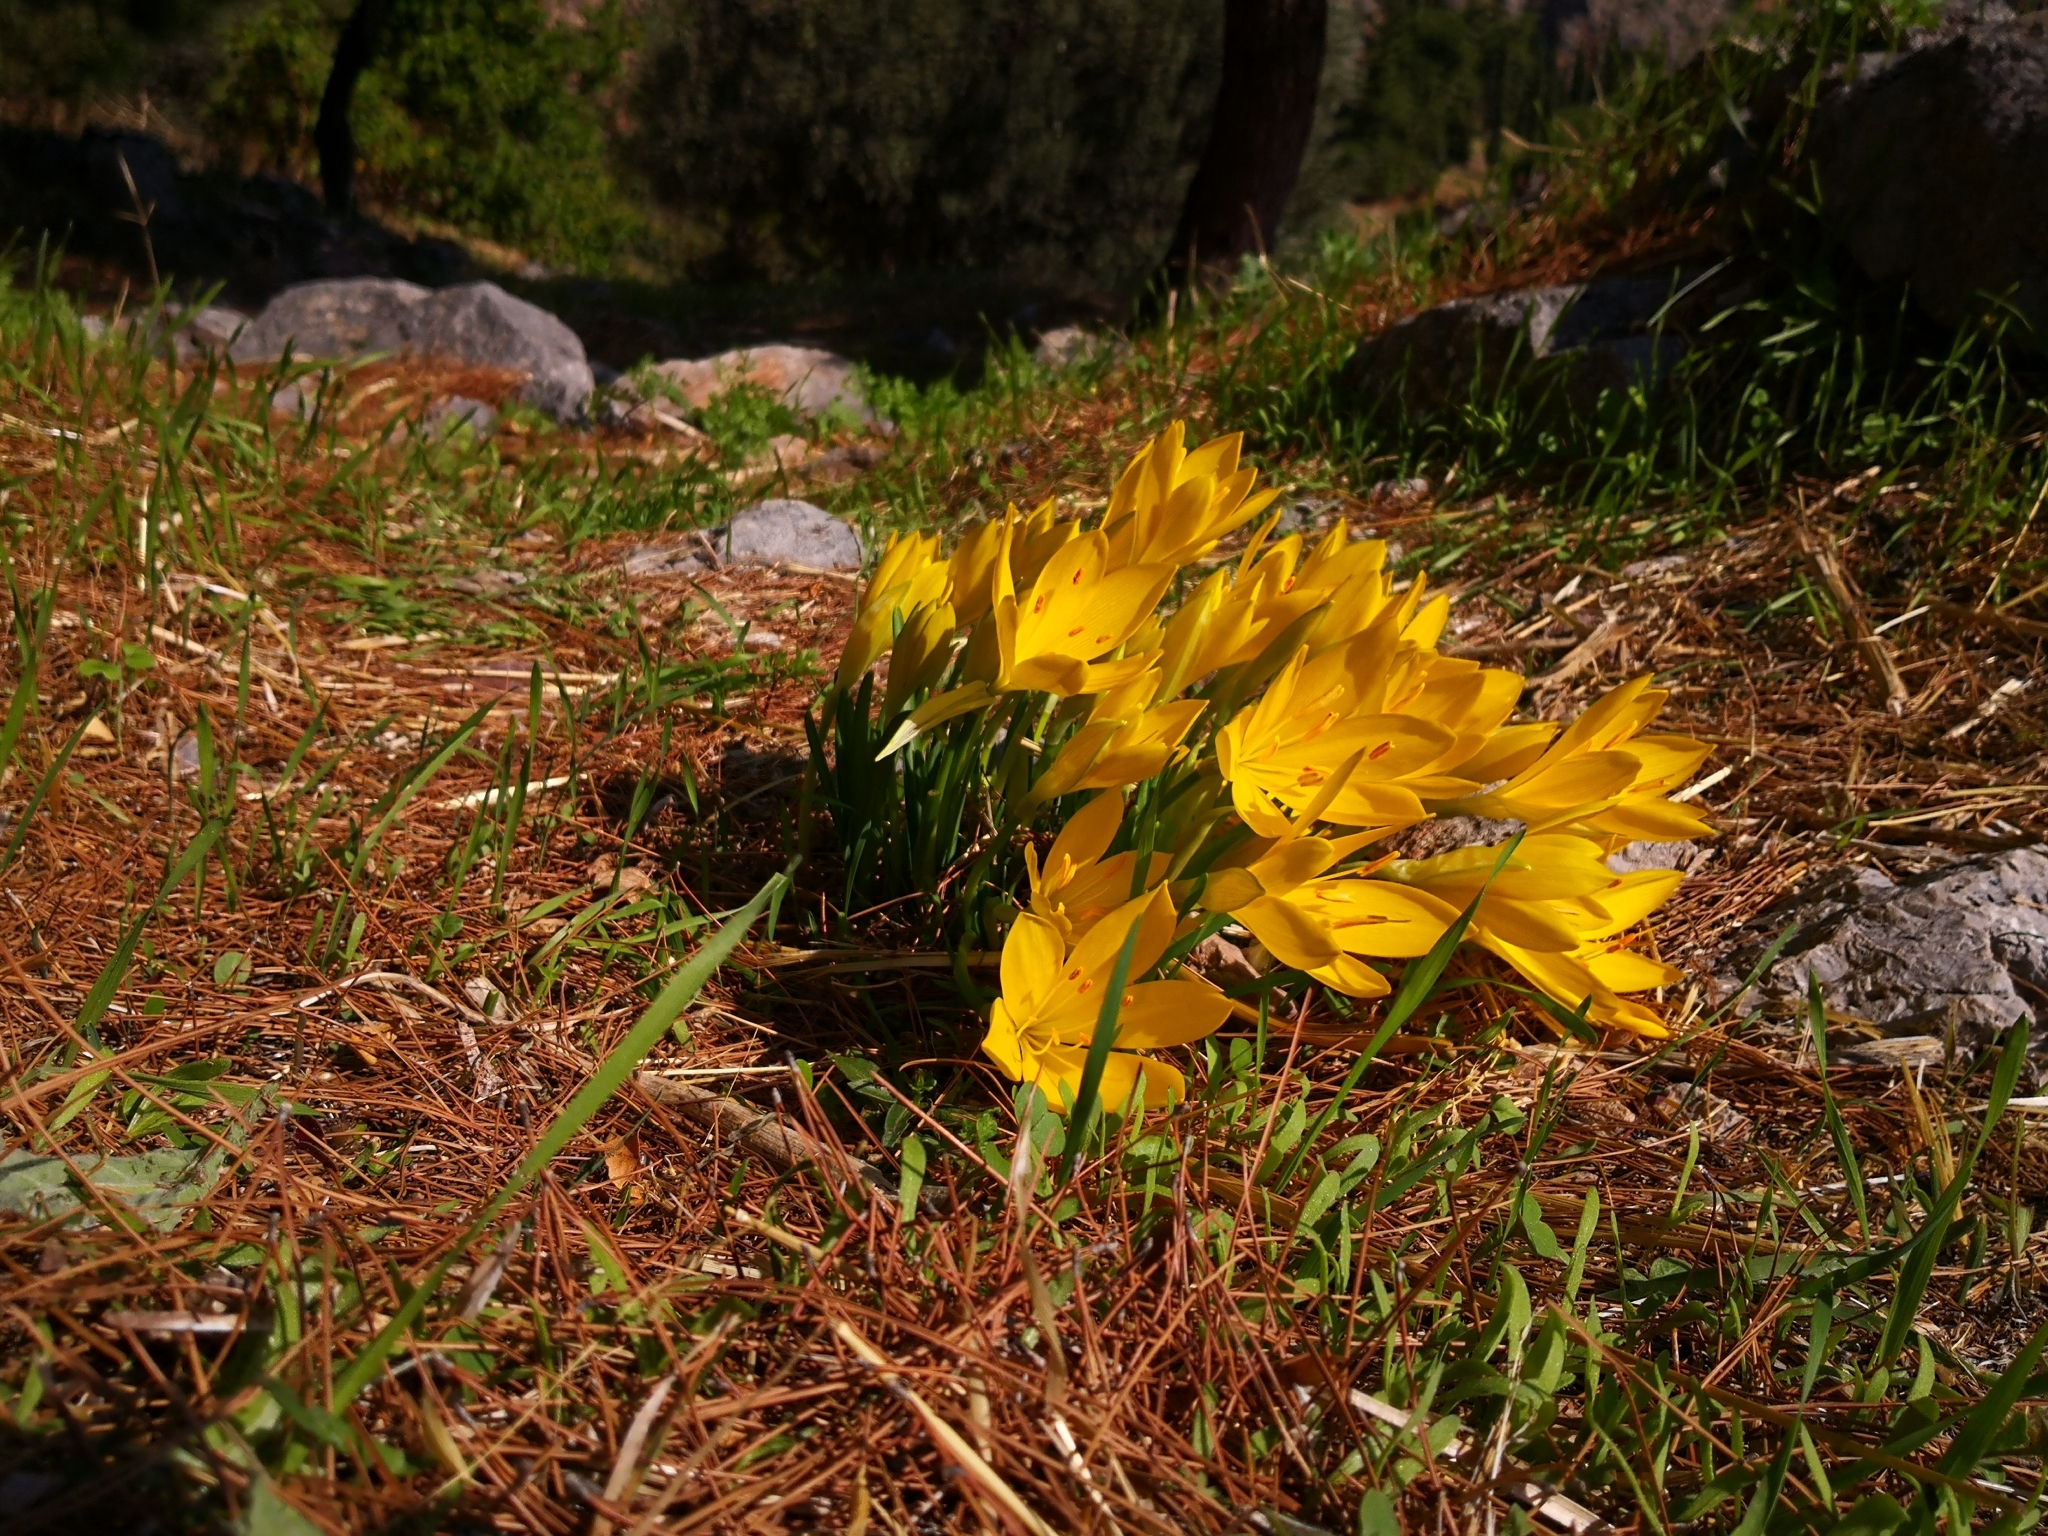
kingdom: Plantae
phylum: Tracheophyta
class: Liliopsida
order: Asparagales
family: Amaryllidaceae
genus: Sternbergia
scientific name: Sternbergia lutea
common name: Winter daffodil
